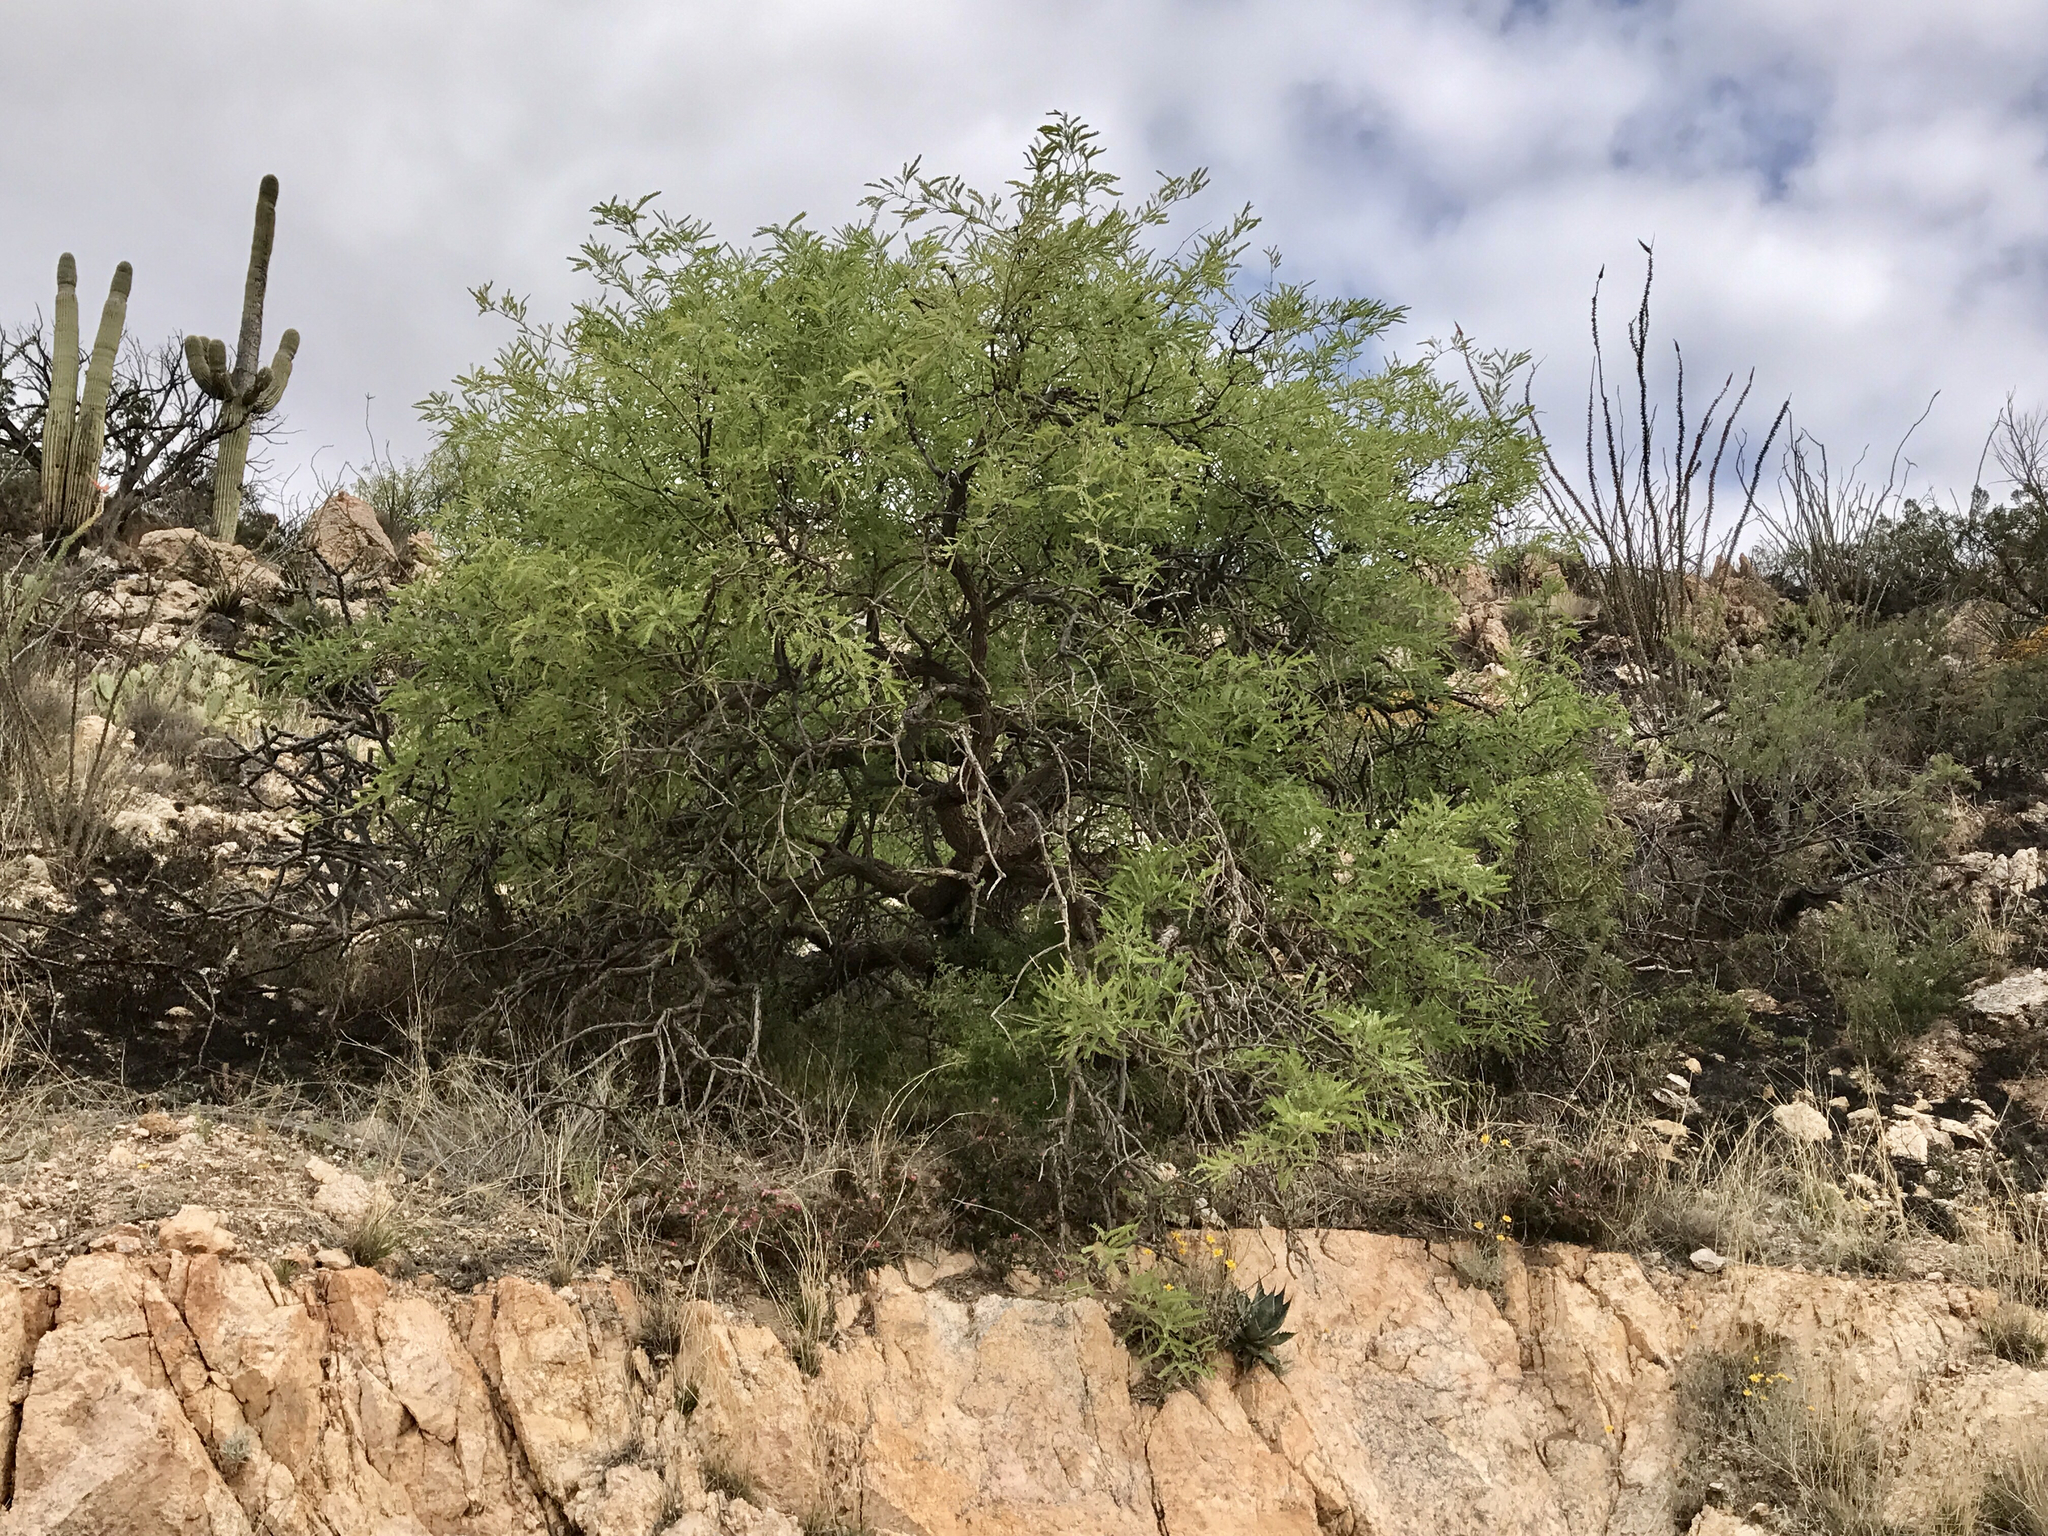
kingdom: Plantae
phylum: Tracheophyta
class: Magnoliopsida
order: Fabales
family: Fabaceae
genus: Prosopis
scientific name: Prosopis velutina
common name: Velvet mesquite
